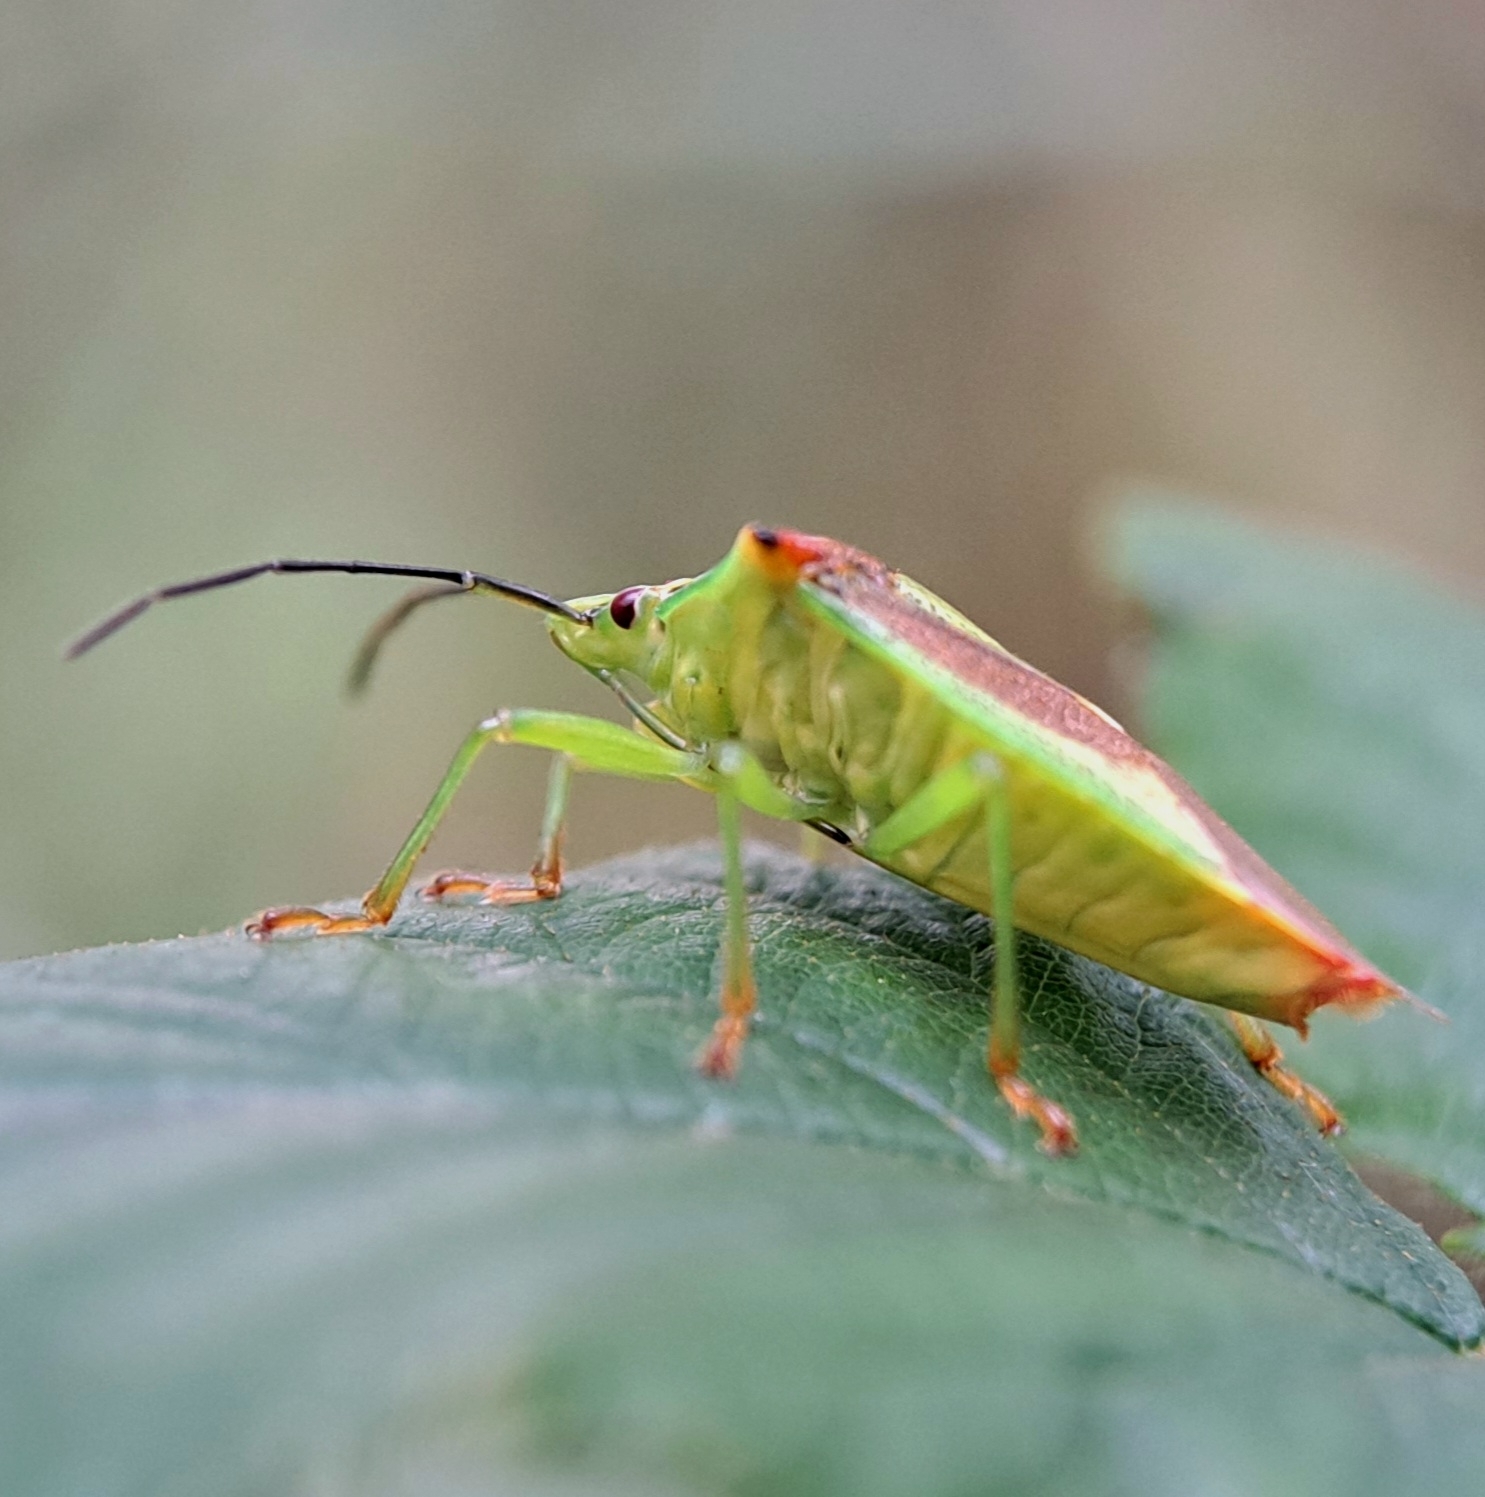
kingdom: Animalia
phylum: Arthropoda
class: Insecta
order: Hemiptera
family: Acanthosomatidae
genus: Acanthosoma
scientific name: Acanthosoma haemorrhoidale
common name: Hawthorn shieldbug
